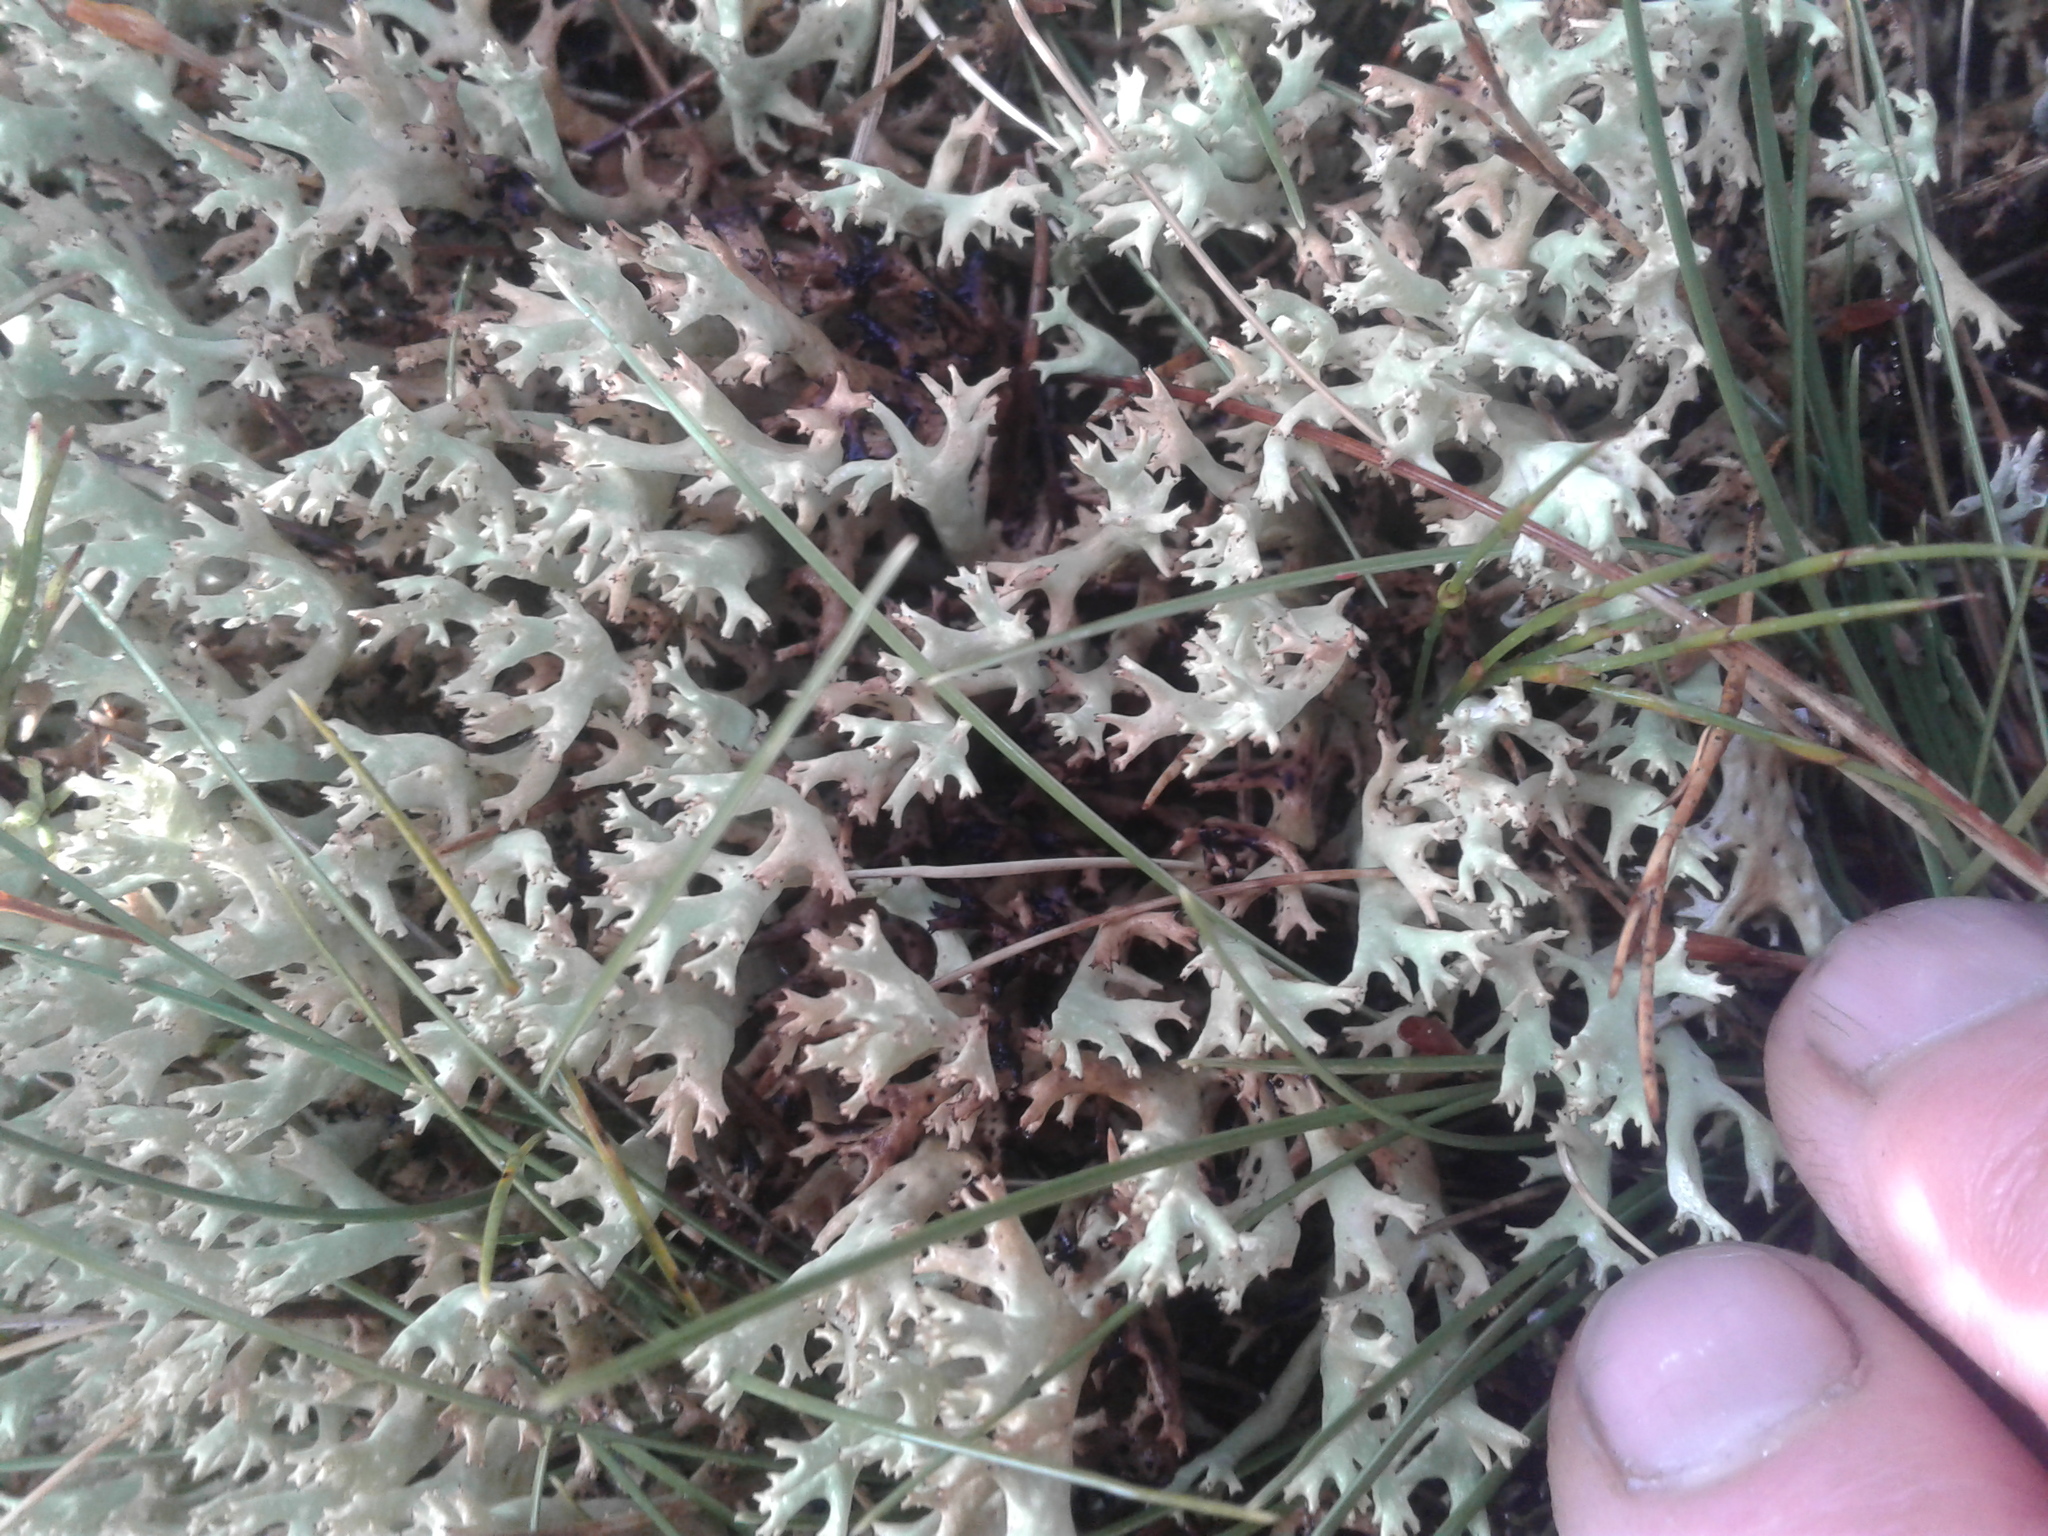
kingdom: Fungi
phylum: Ascomycota
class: Lecanoromycetes
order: Lecanorales
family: Cladoniaceae
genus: Rexiella
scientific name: Rexiella sullivanii
